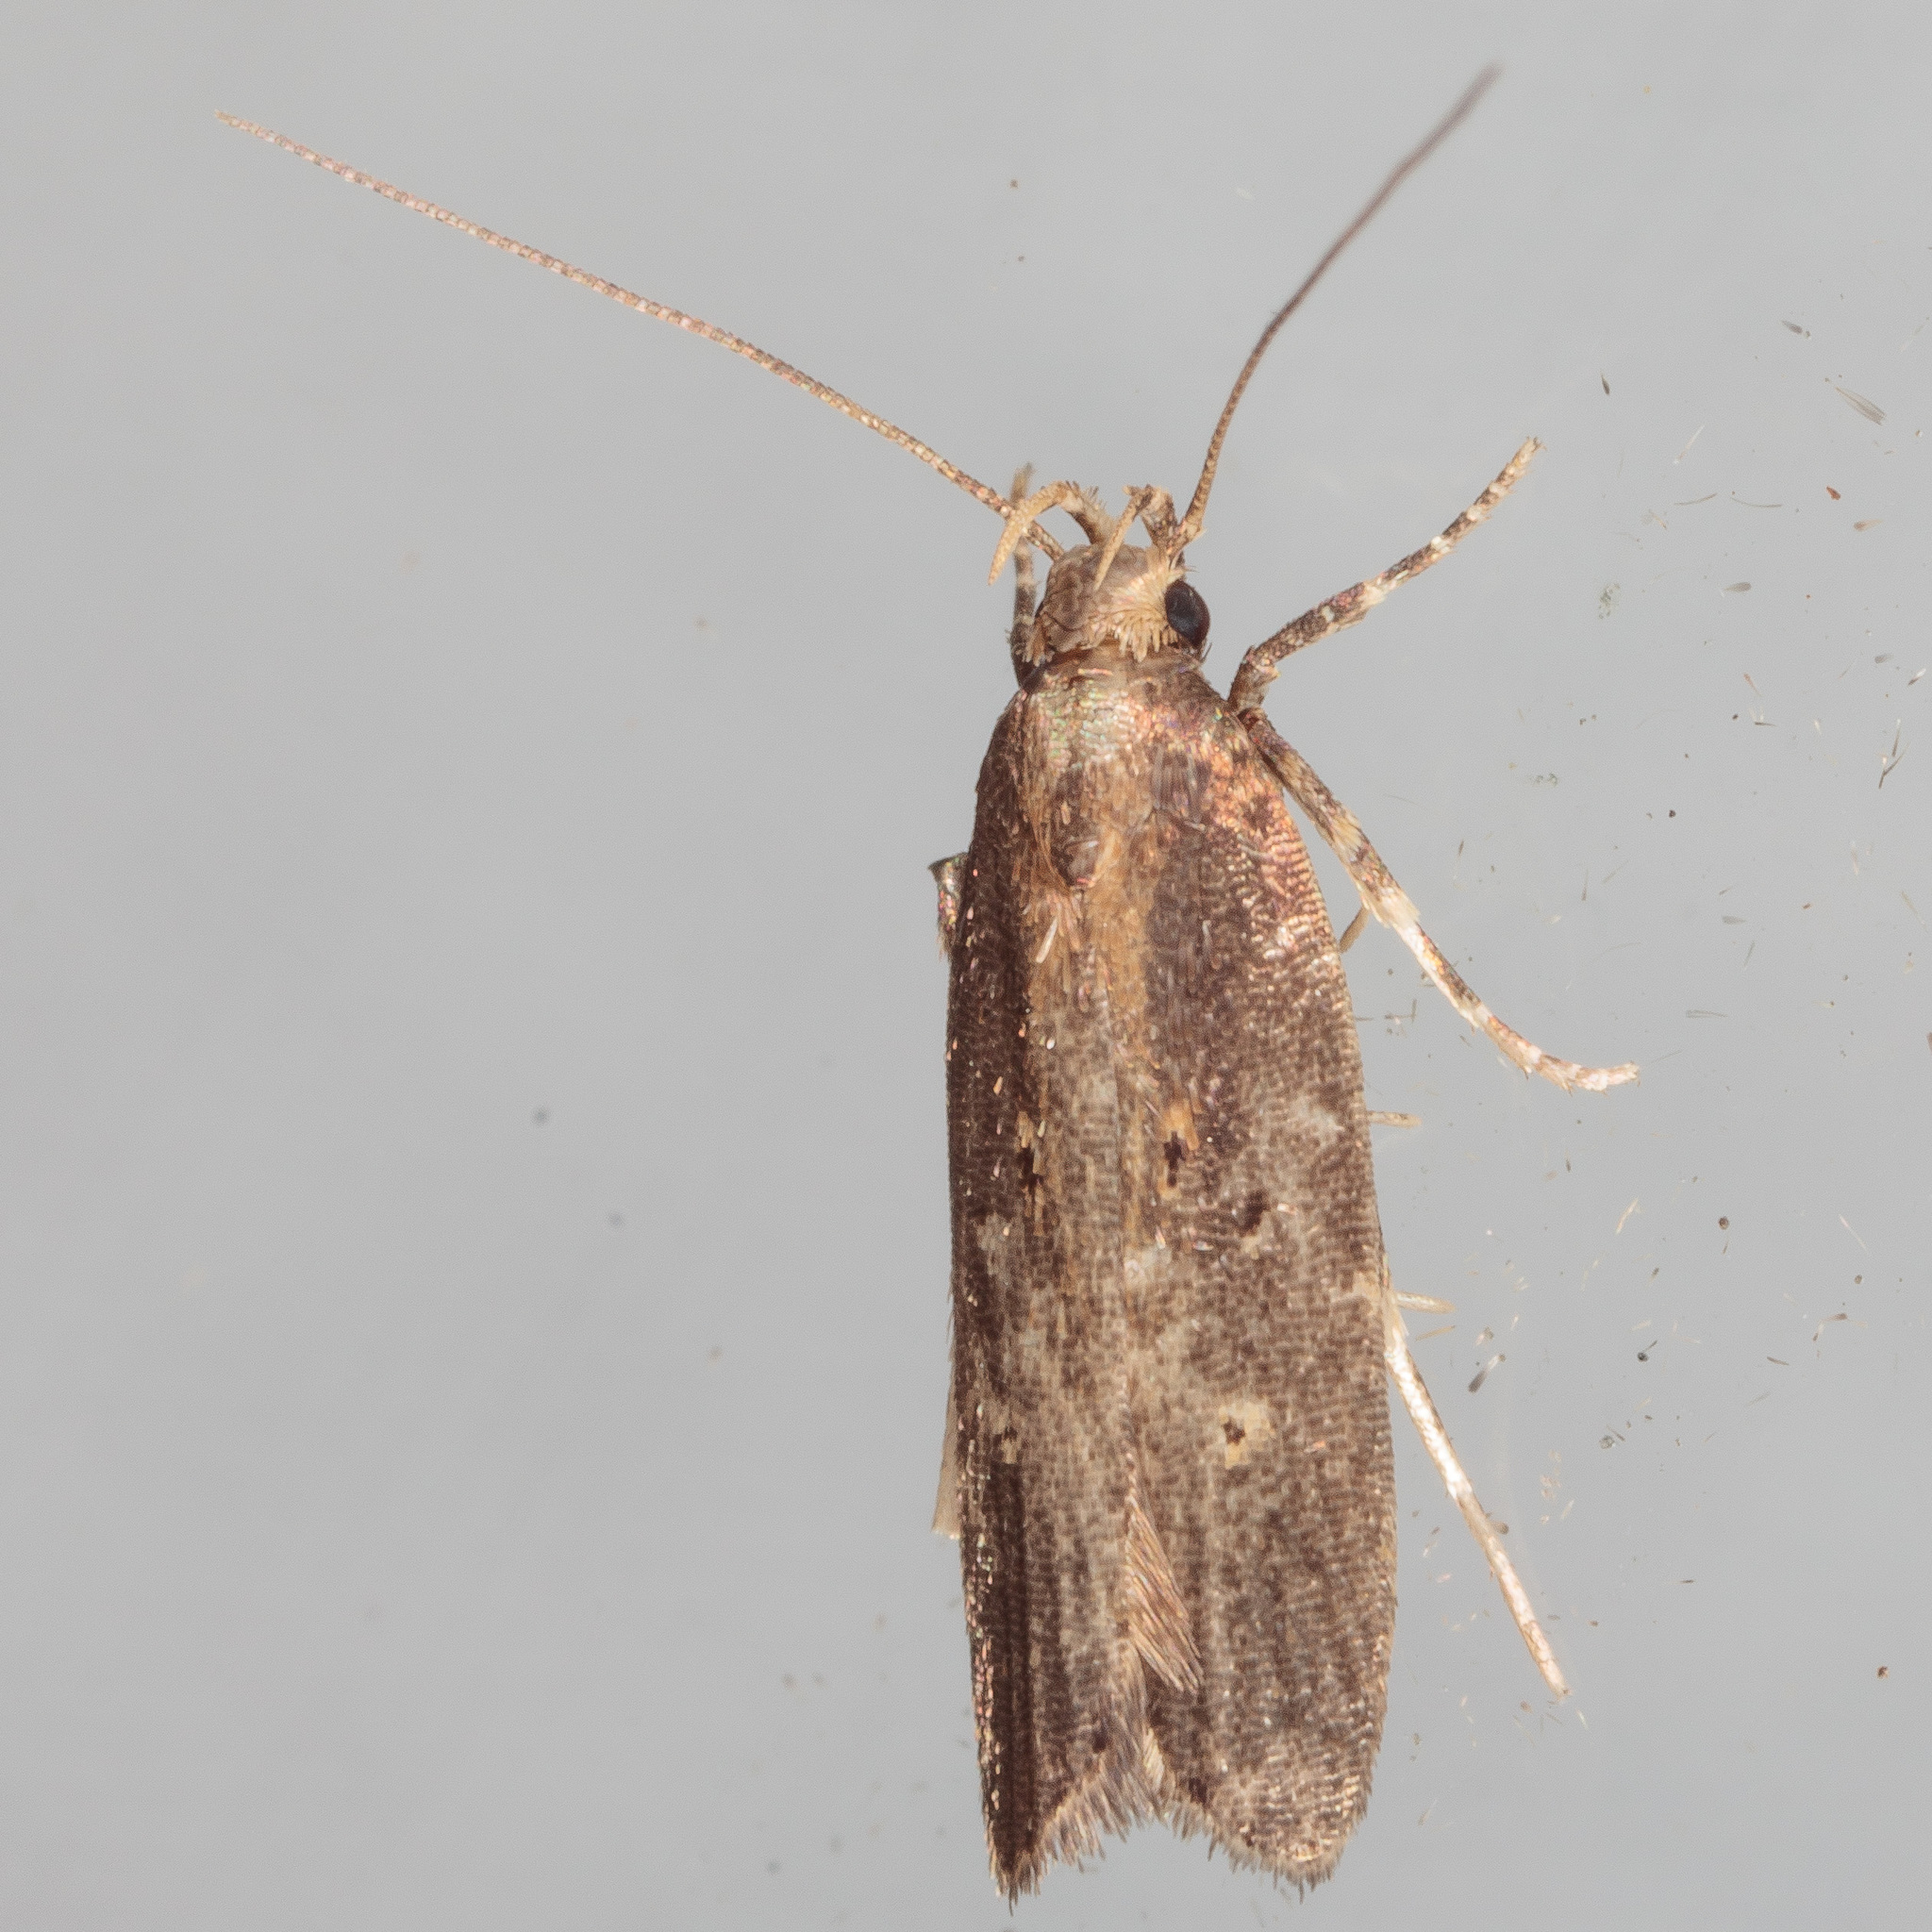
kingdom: Animalia
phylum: Arthropoda
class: Insecta
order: Lepidoptera
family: Gelechiidae
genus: Chionodes
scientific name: Chionodes discoocellella
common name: Eye-ringed chionodes moth
